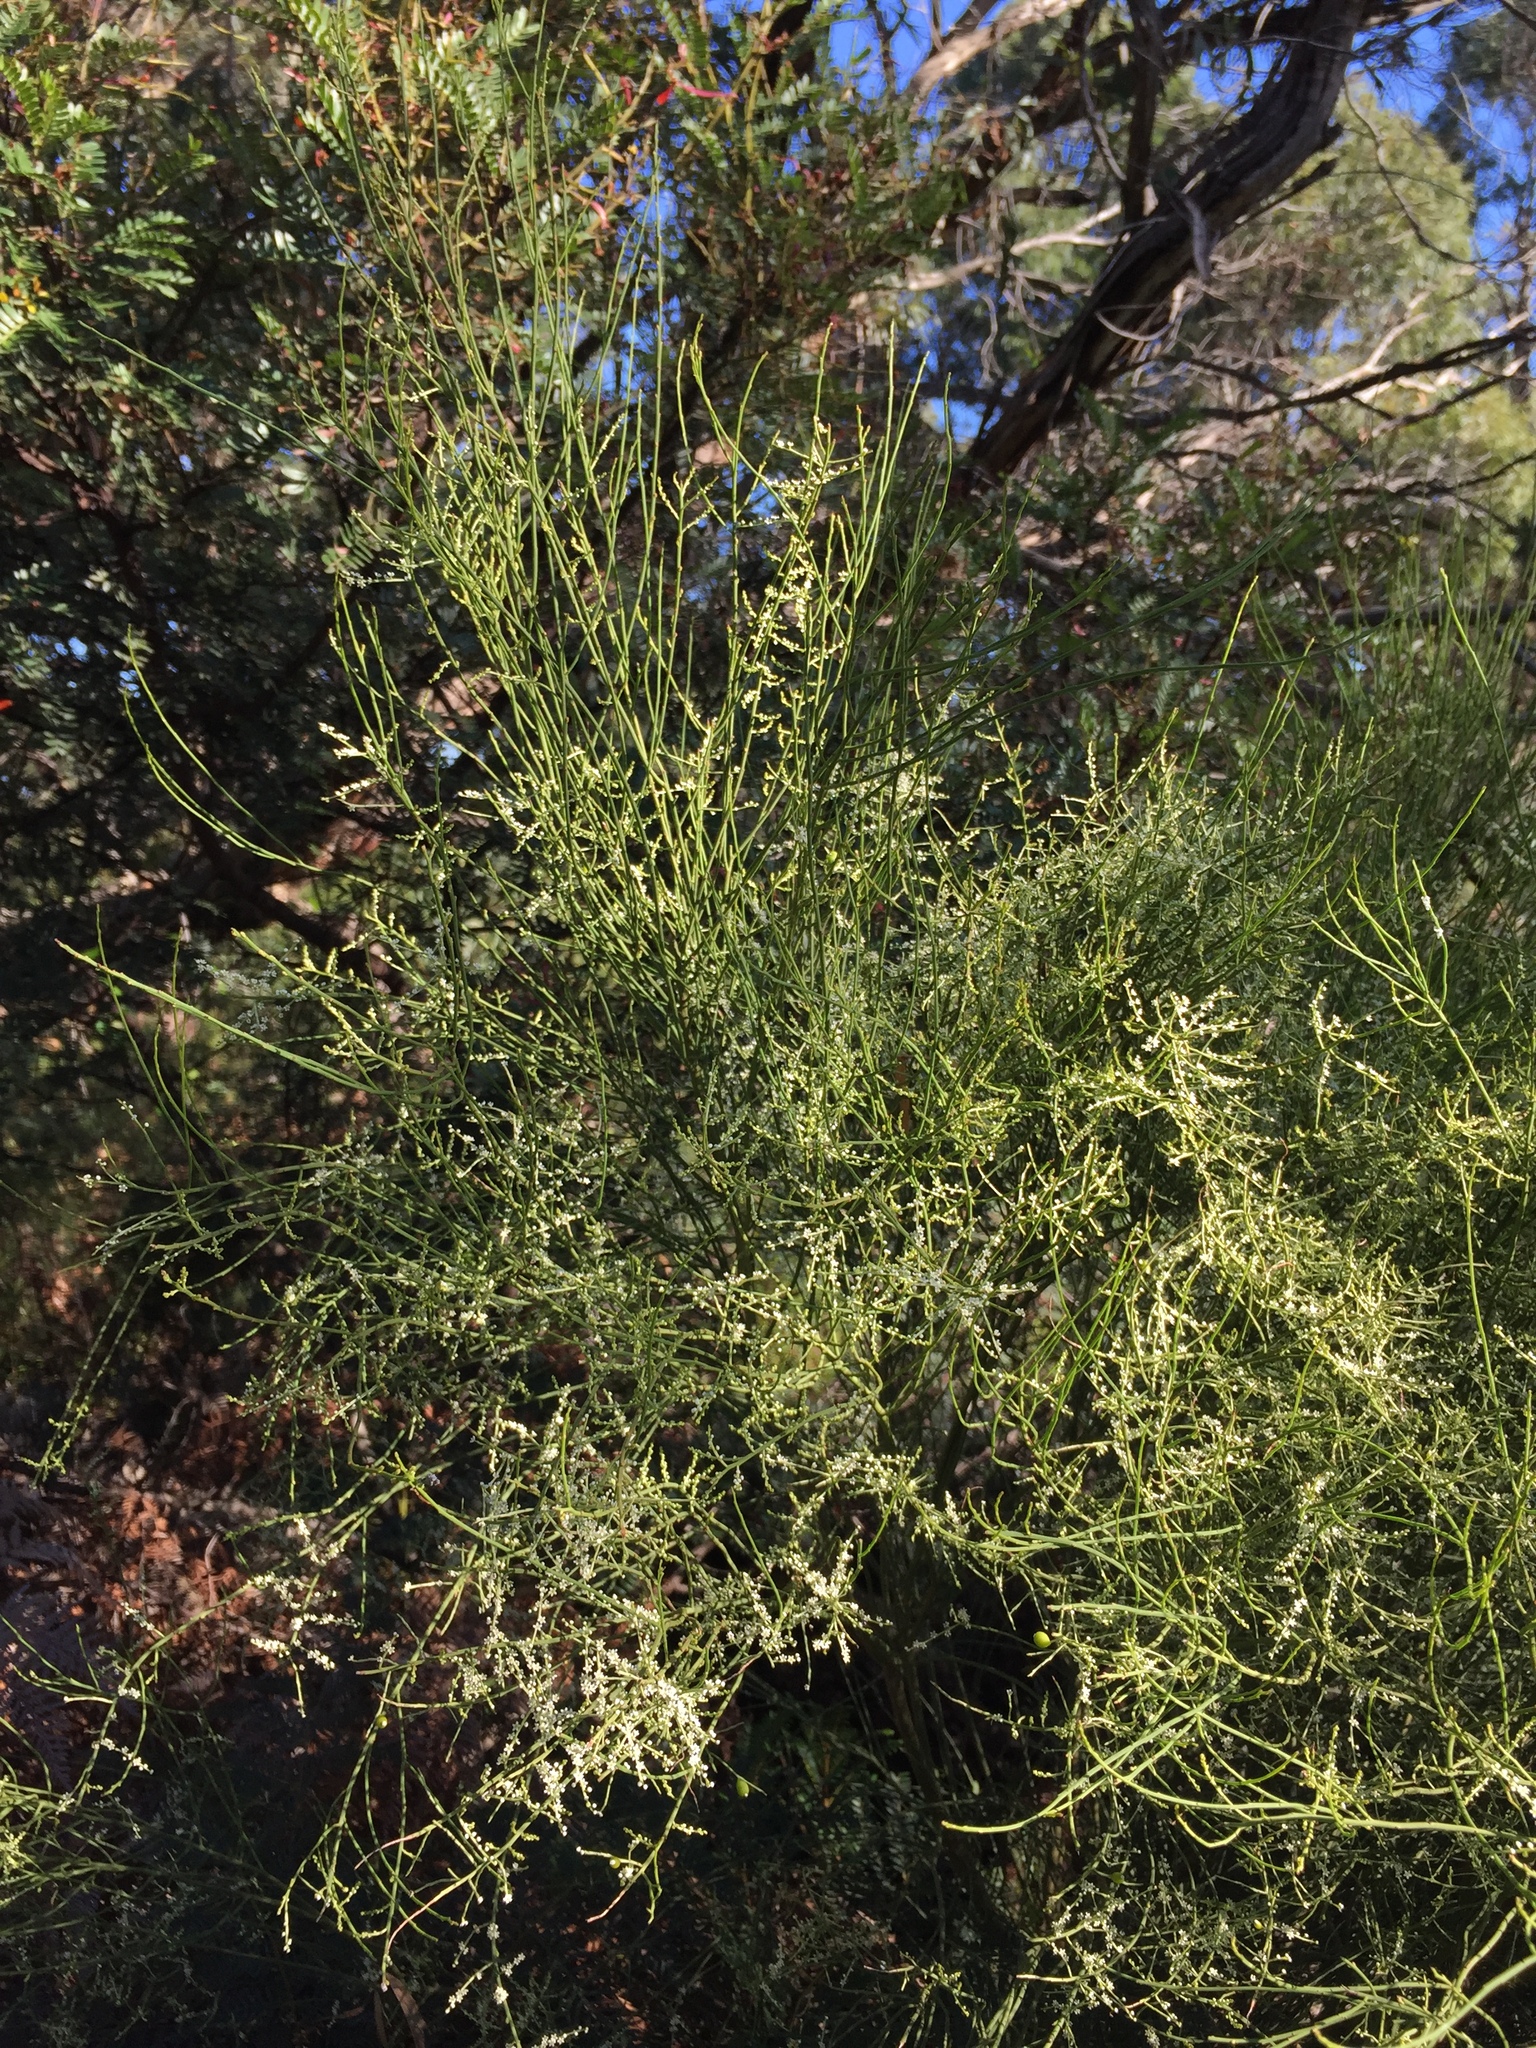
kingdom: Plantae
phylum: Tracheophyta
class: Magnoliopsida
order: Santalales
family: Amphorogynaceae
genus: Leptomeria
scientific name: Leptomeria drupacea
